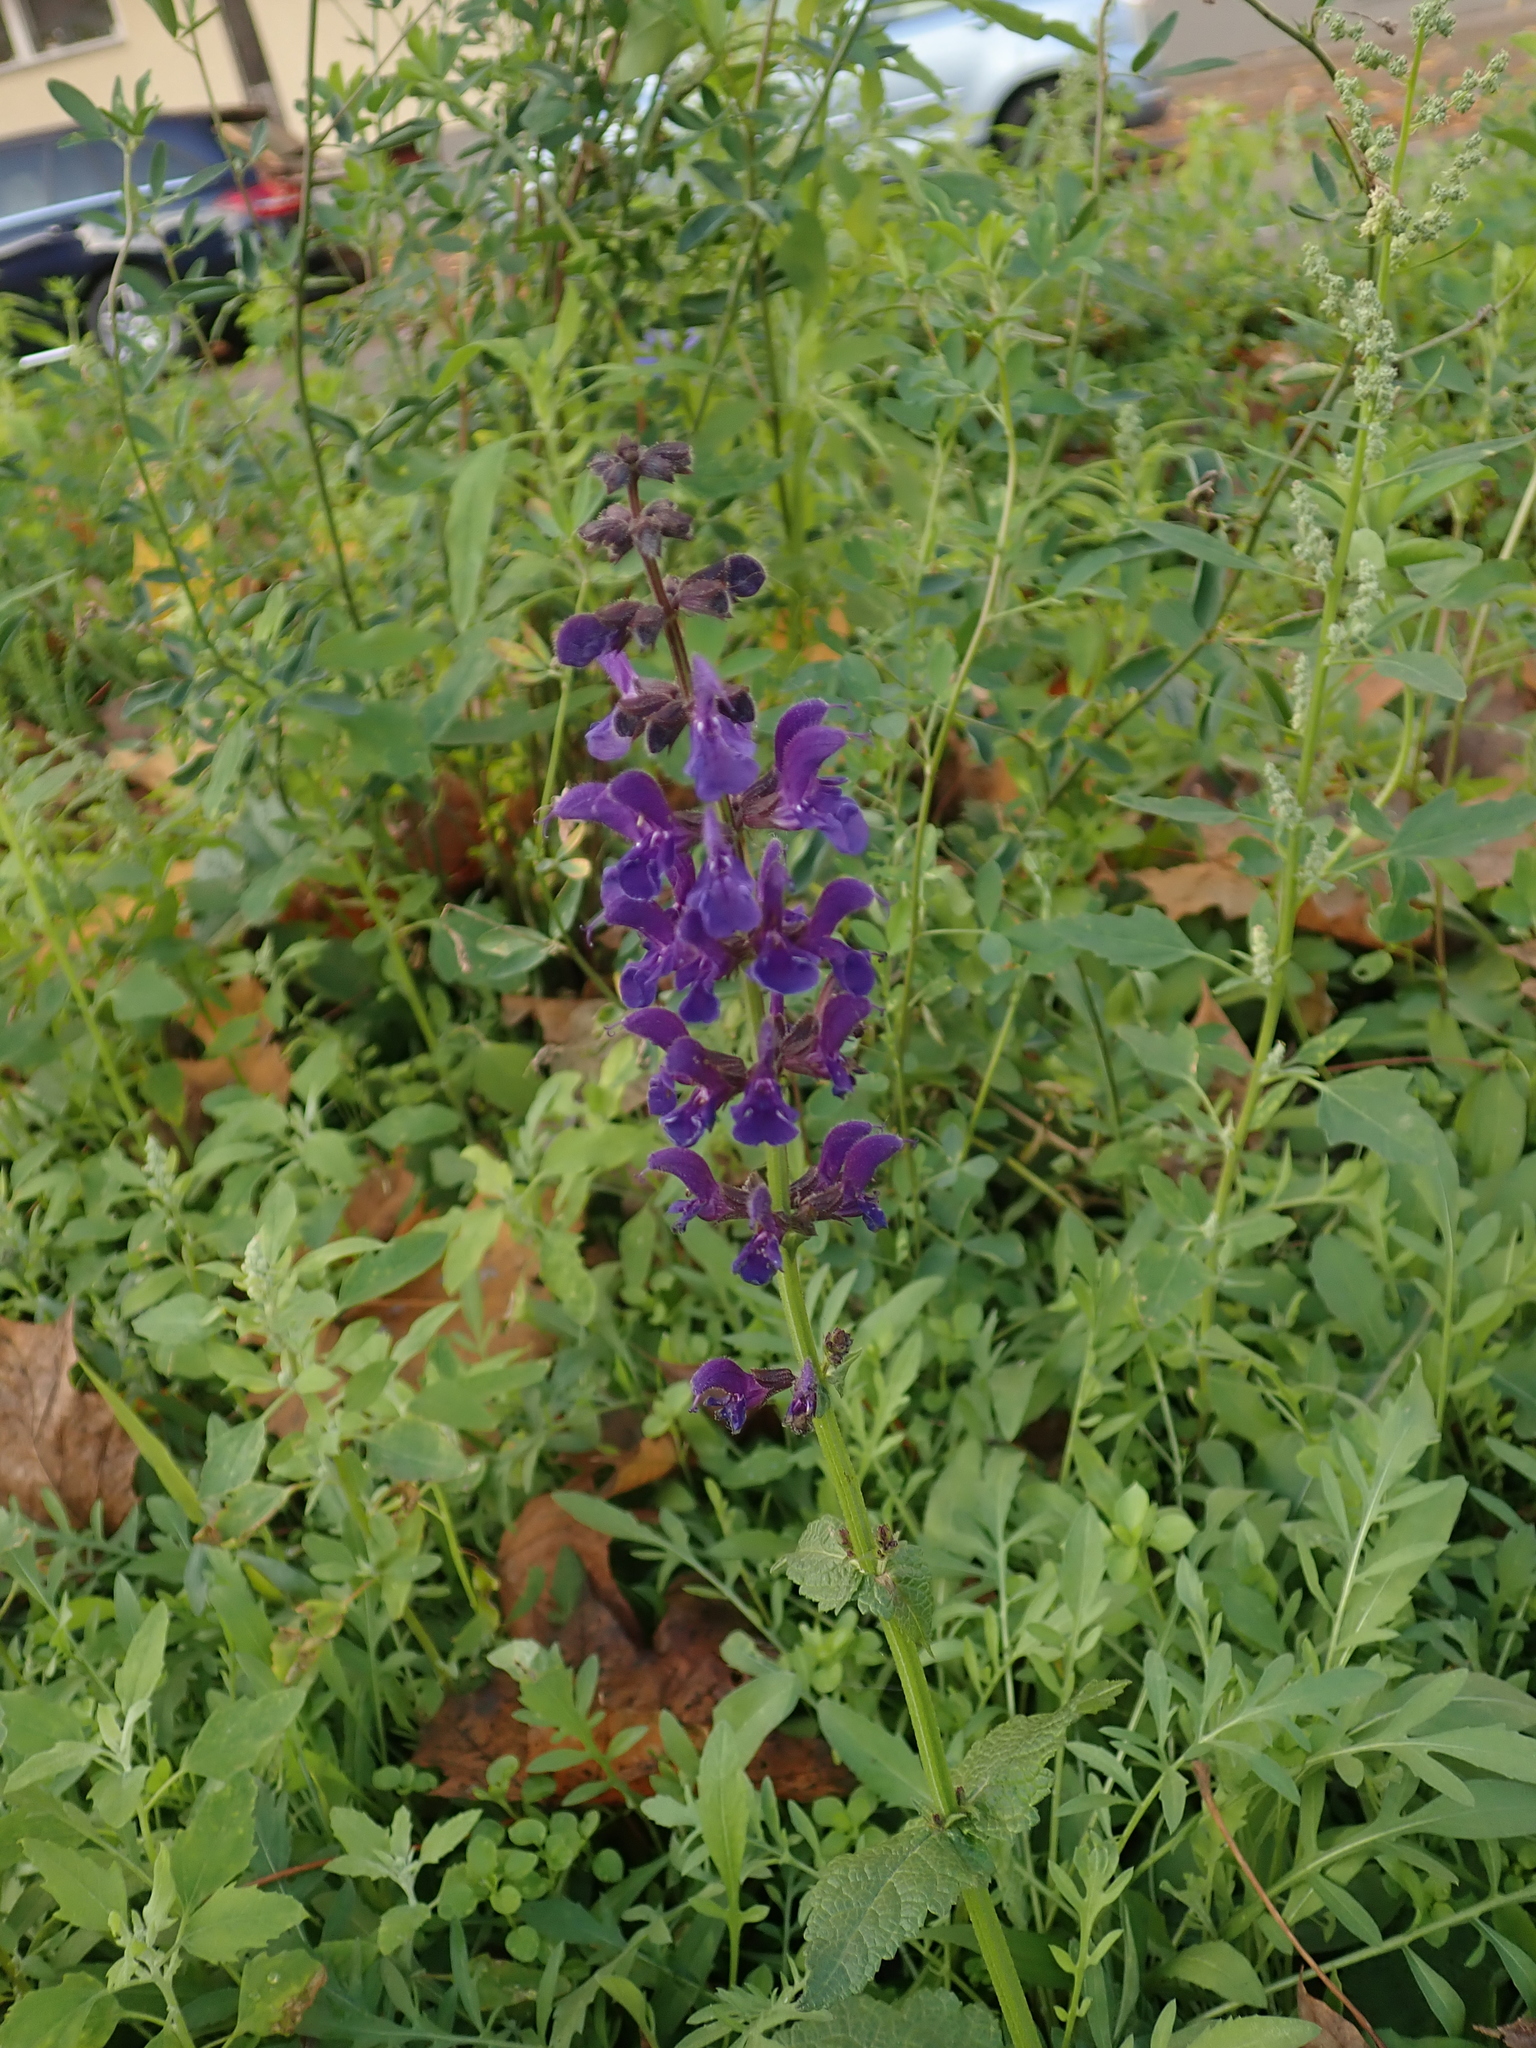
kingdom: Plantae
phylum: Tracheophyta
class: Magnoliopsida
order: Lamiales
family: Lamiaceae
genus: Salvia
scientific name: Salvia pratensis
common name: Meadow sage
